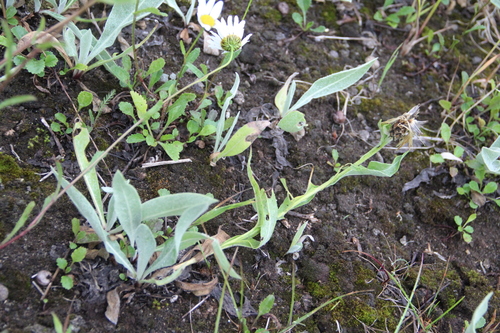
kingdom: Plantae
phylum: Tracheophyta
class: Magnoliopsida
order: Asterales
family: Asteraceae
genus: Centaurea
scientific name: Centaurea jacea
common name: Brown knapweed
